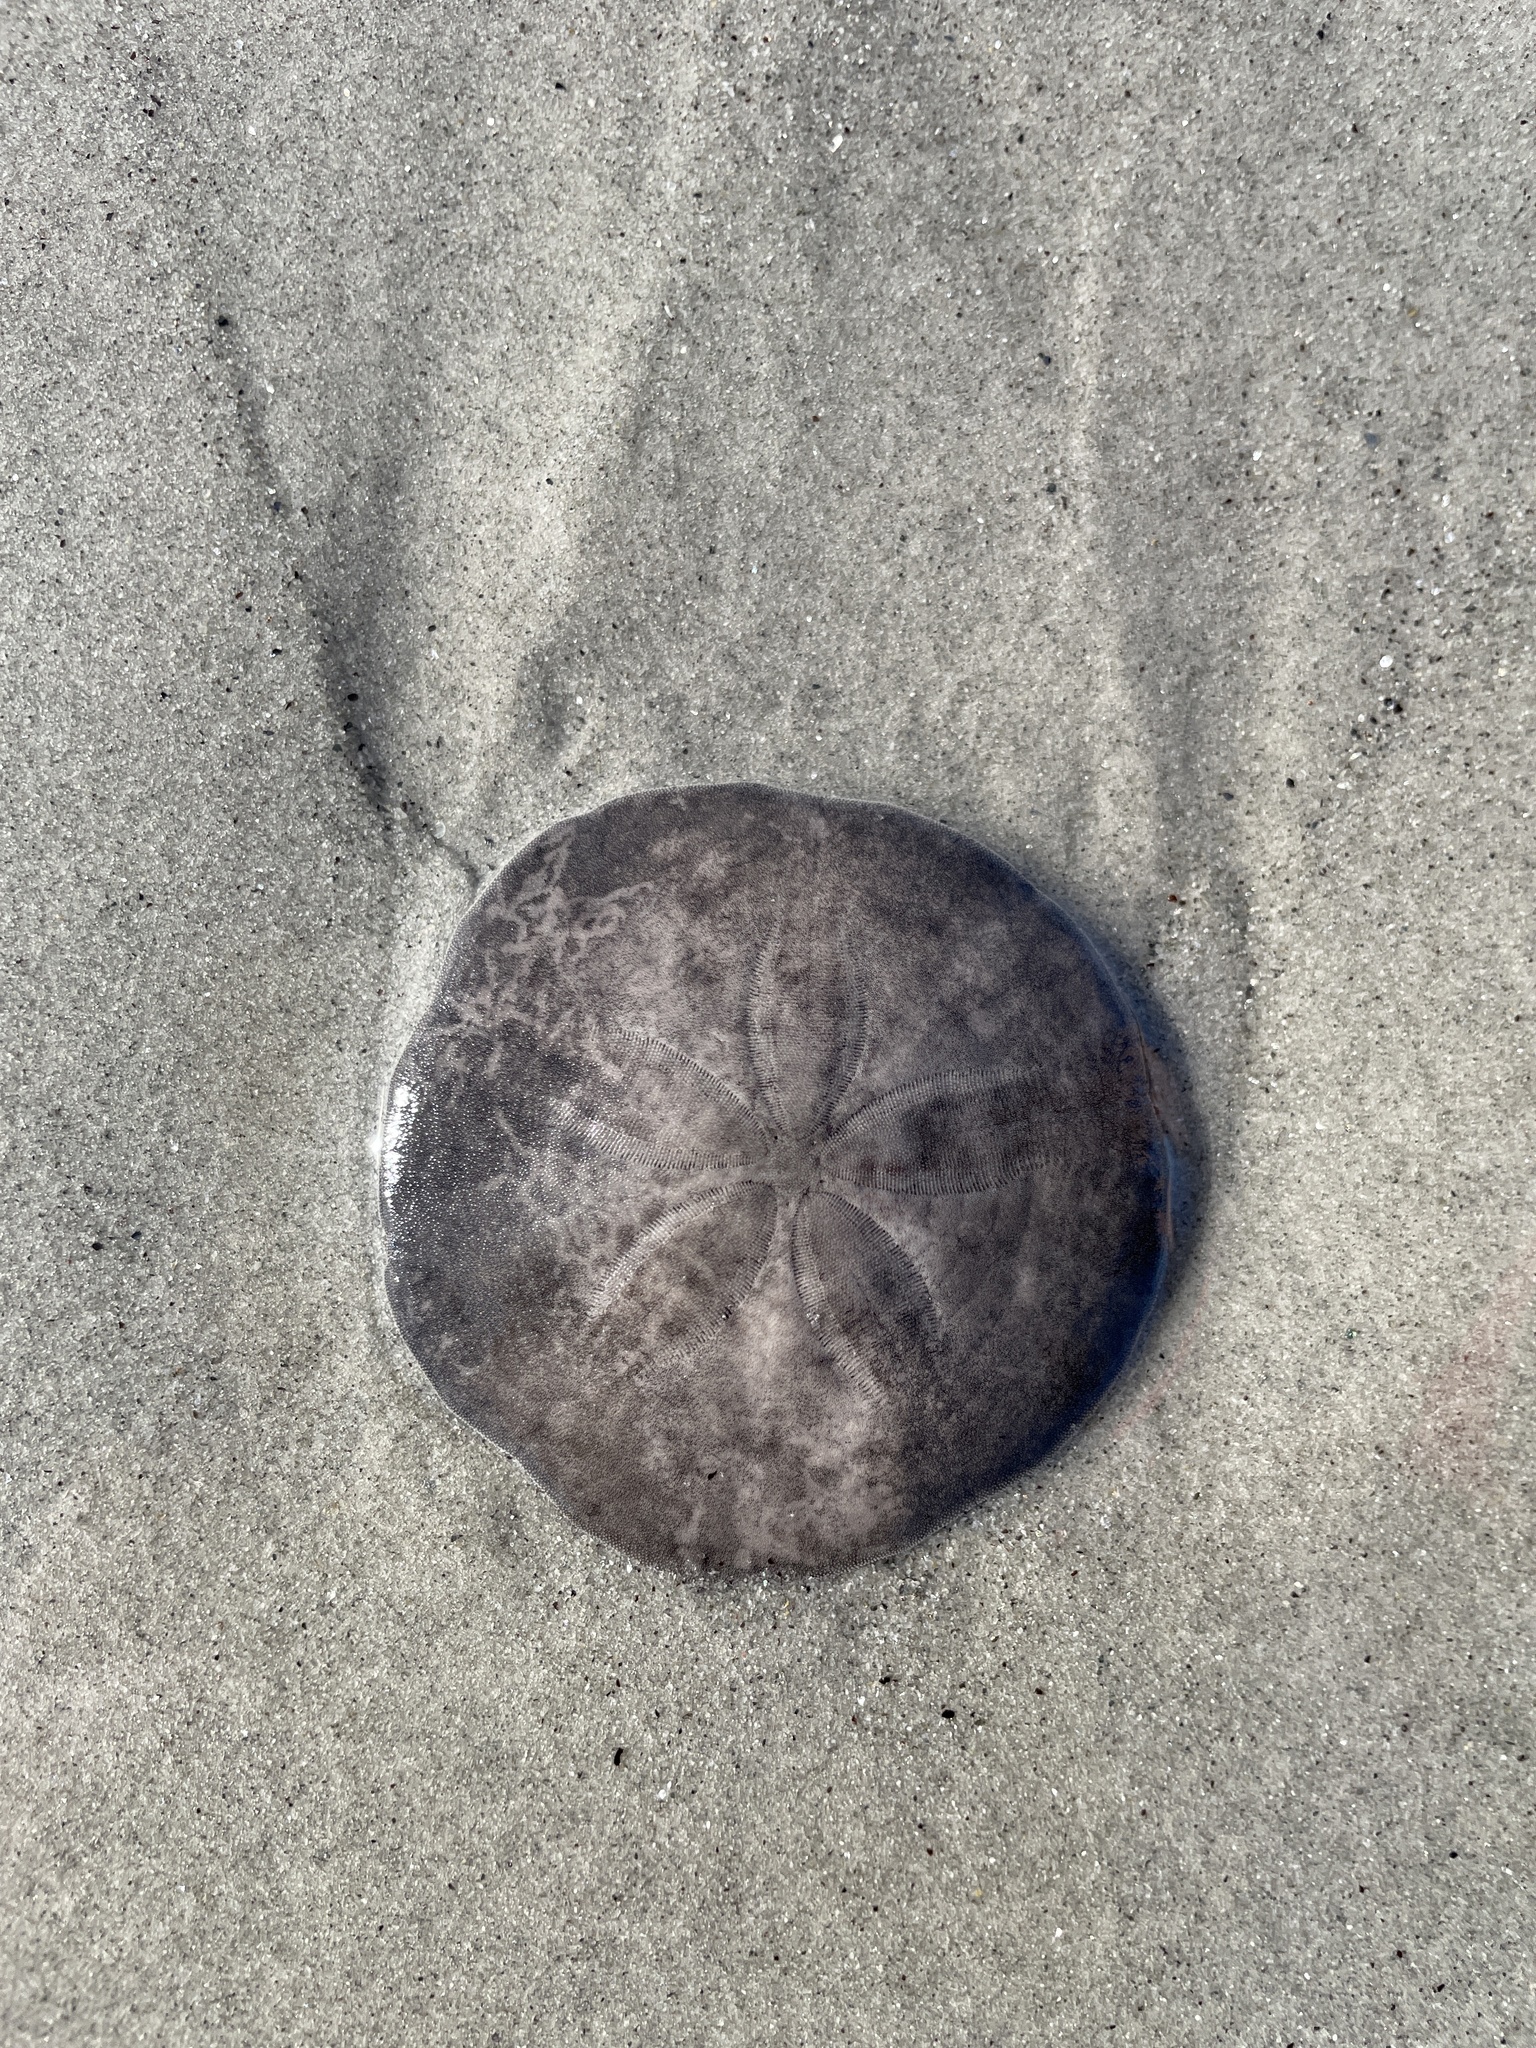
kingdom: Animalia
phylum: Echinodermata
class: Echinoidea
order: Echinolampadacea
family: Echinarachniidae
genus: Echinarachnius
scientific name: Echinarachnius parma
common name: Common sand dollar
